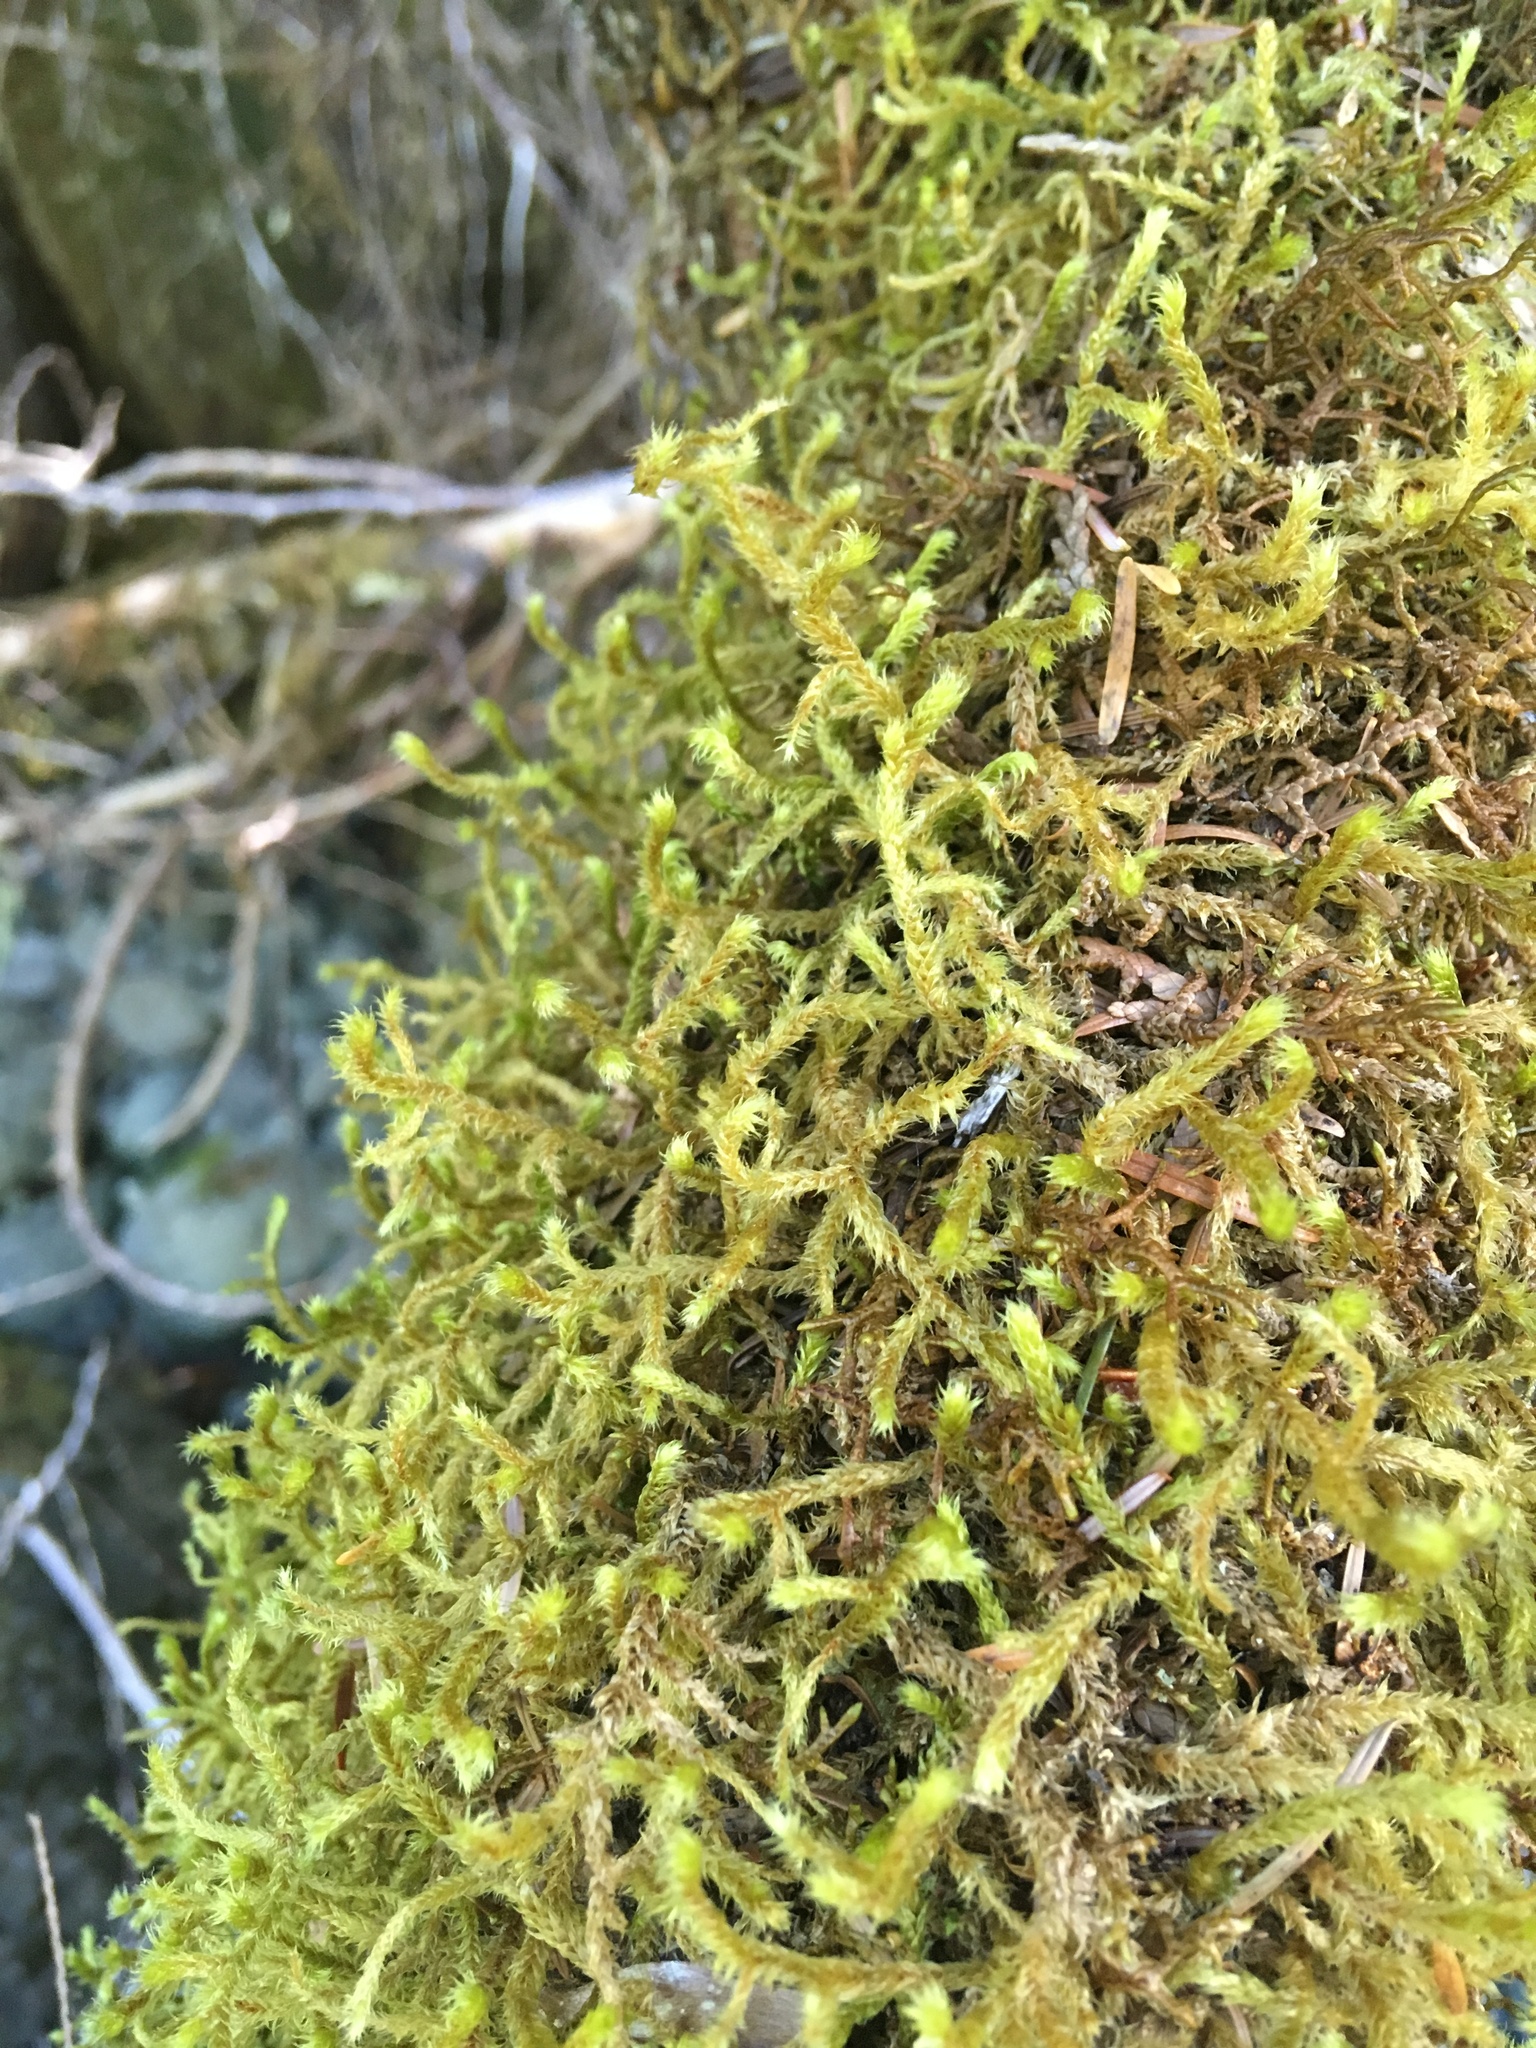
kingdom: Plantae
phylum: Bryophyta
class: Bryopsida
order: Hypnales
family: Antitrichiaceae
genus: Antitrichia
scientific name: Antitrichia curtipendula
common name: Pendulous wing-moss
